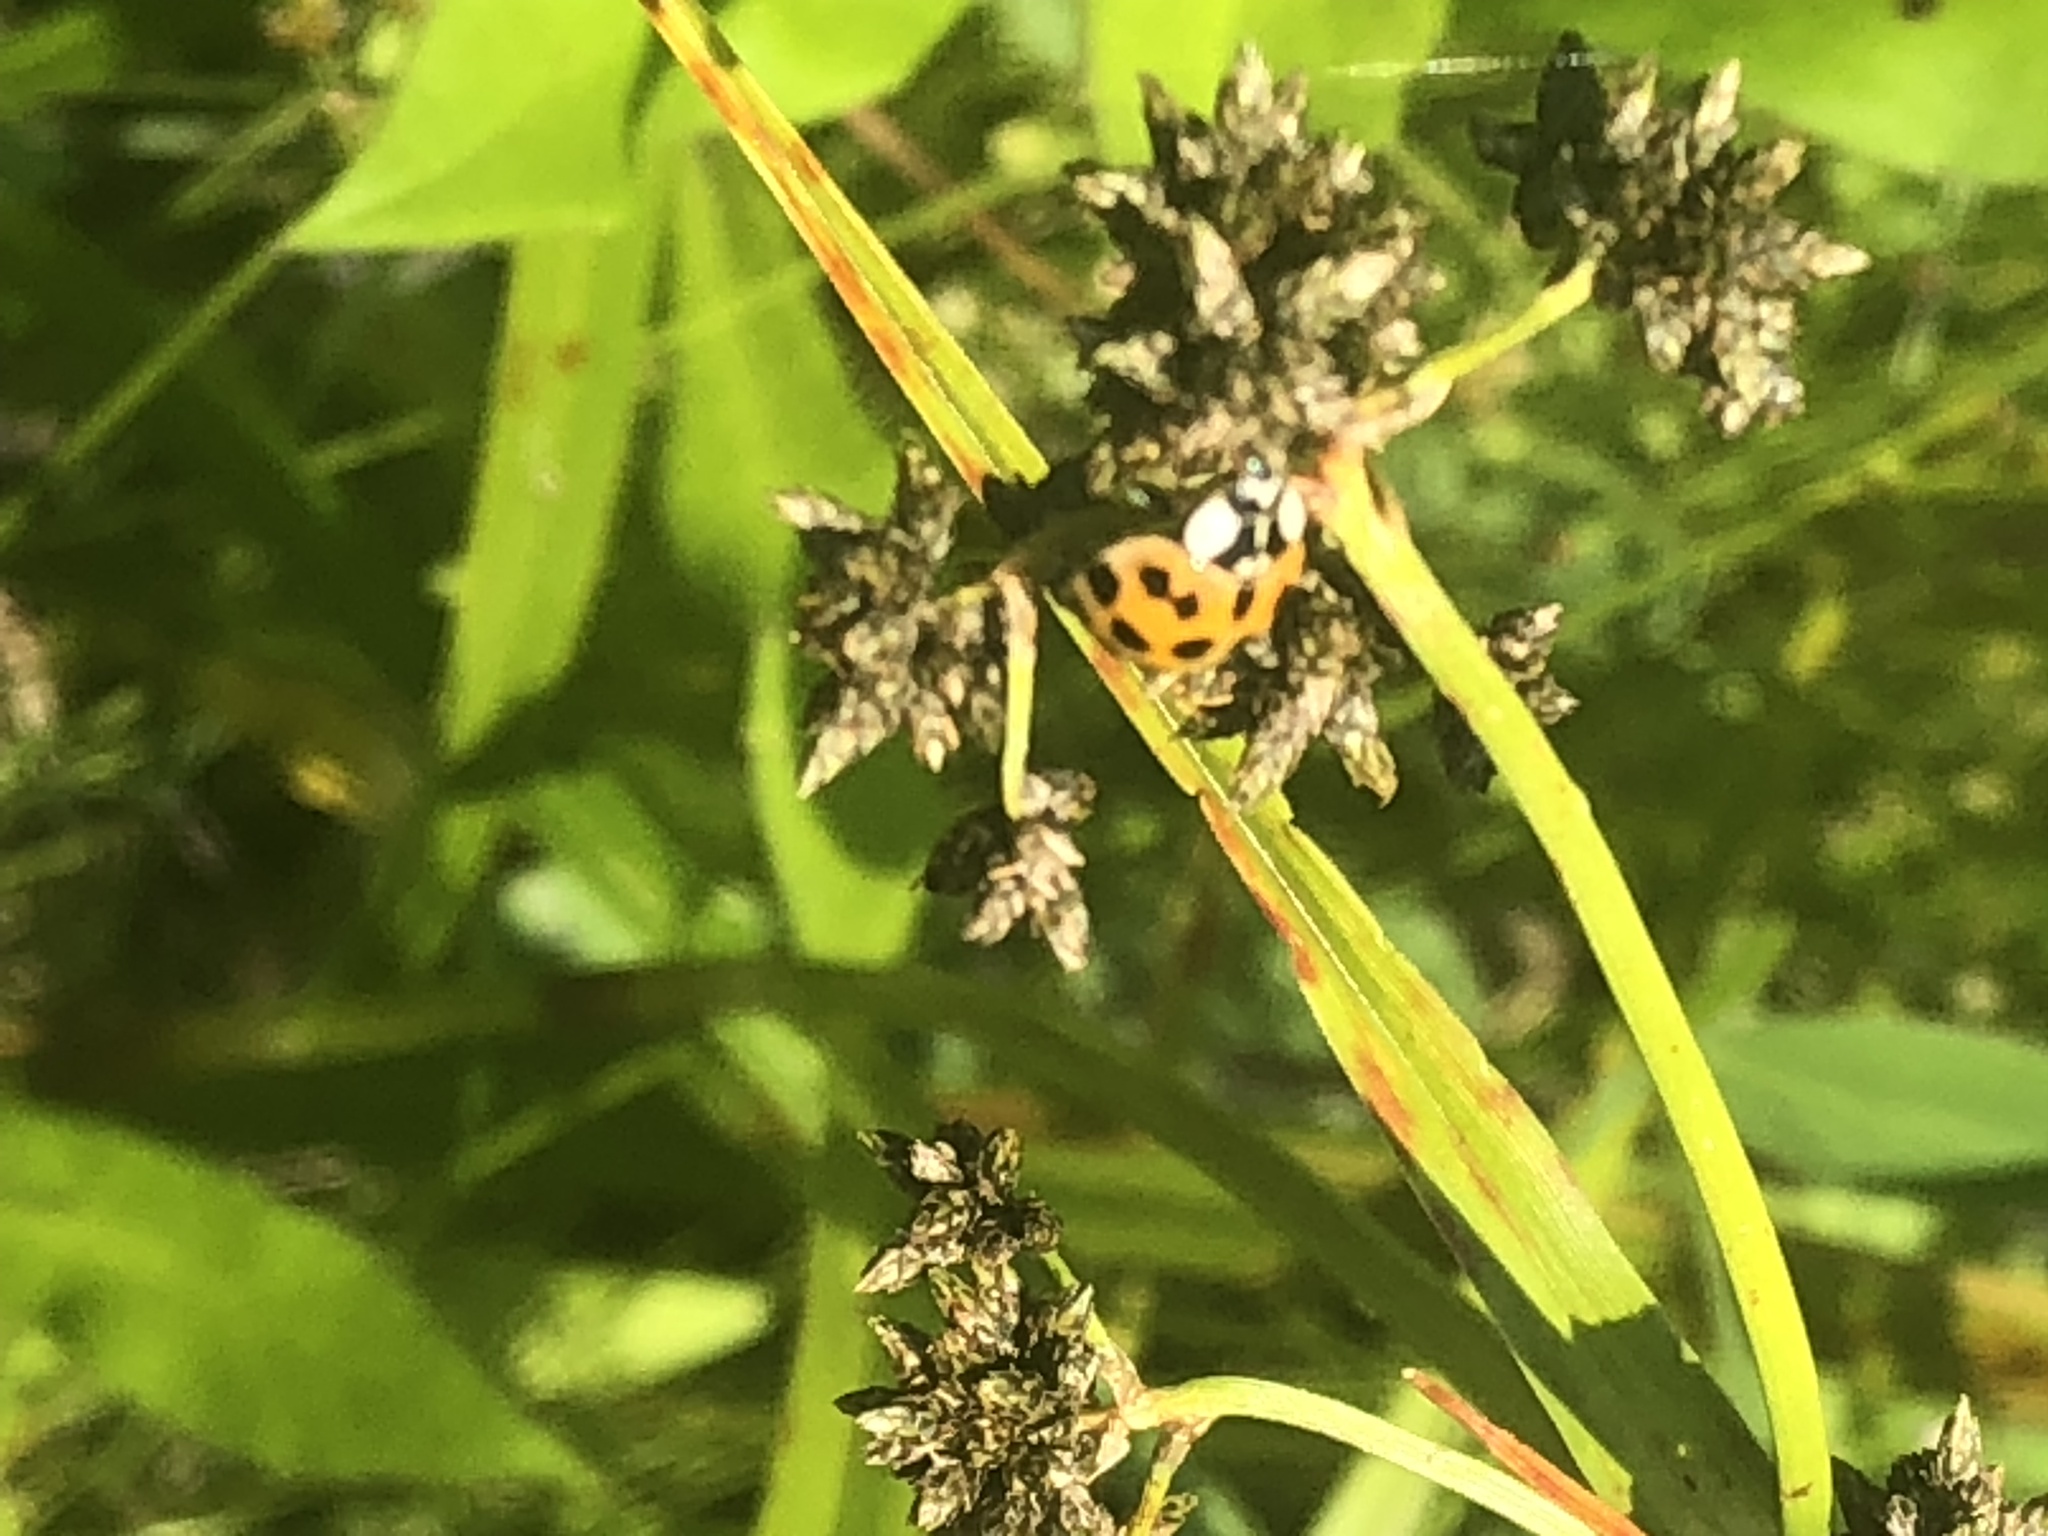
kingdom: Animalia
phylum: Arthropoda
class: Insecta
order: Coleoptera
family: Coccinellidae
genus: Harmonia
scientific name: Harmonia axyridis
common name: Harlequin ladybird
